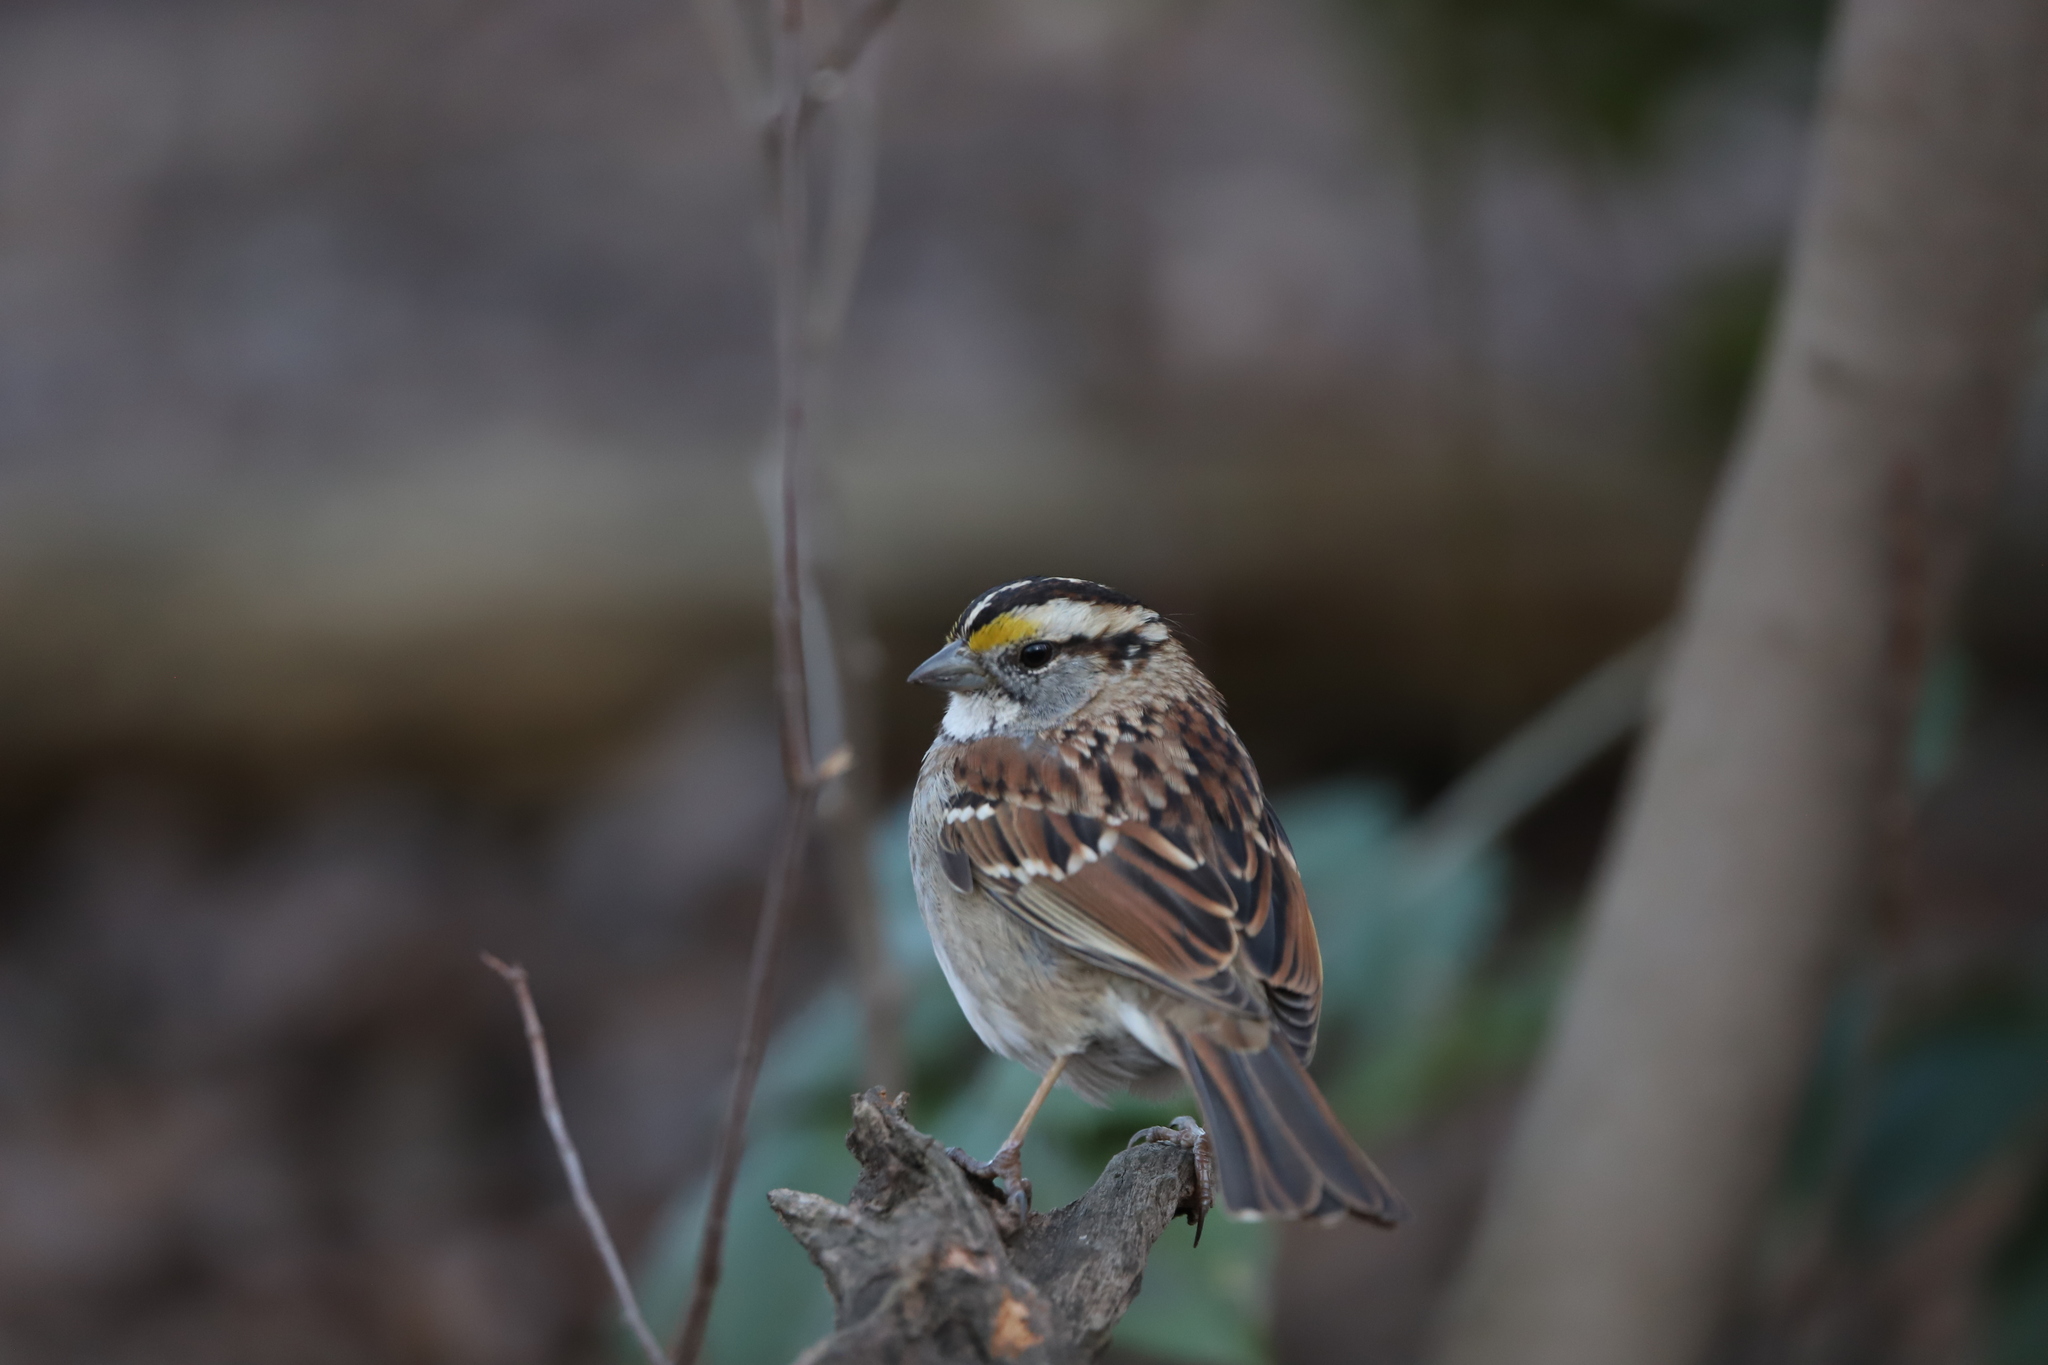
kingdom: Animalia
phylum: Chordata
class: Aves
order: Passeriformes
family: Passerellidae
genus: Zonotrichia
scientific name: Zonotrichia albicollis
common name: White-throated sparrow
